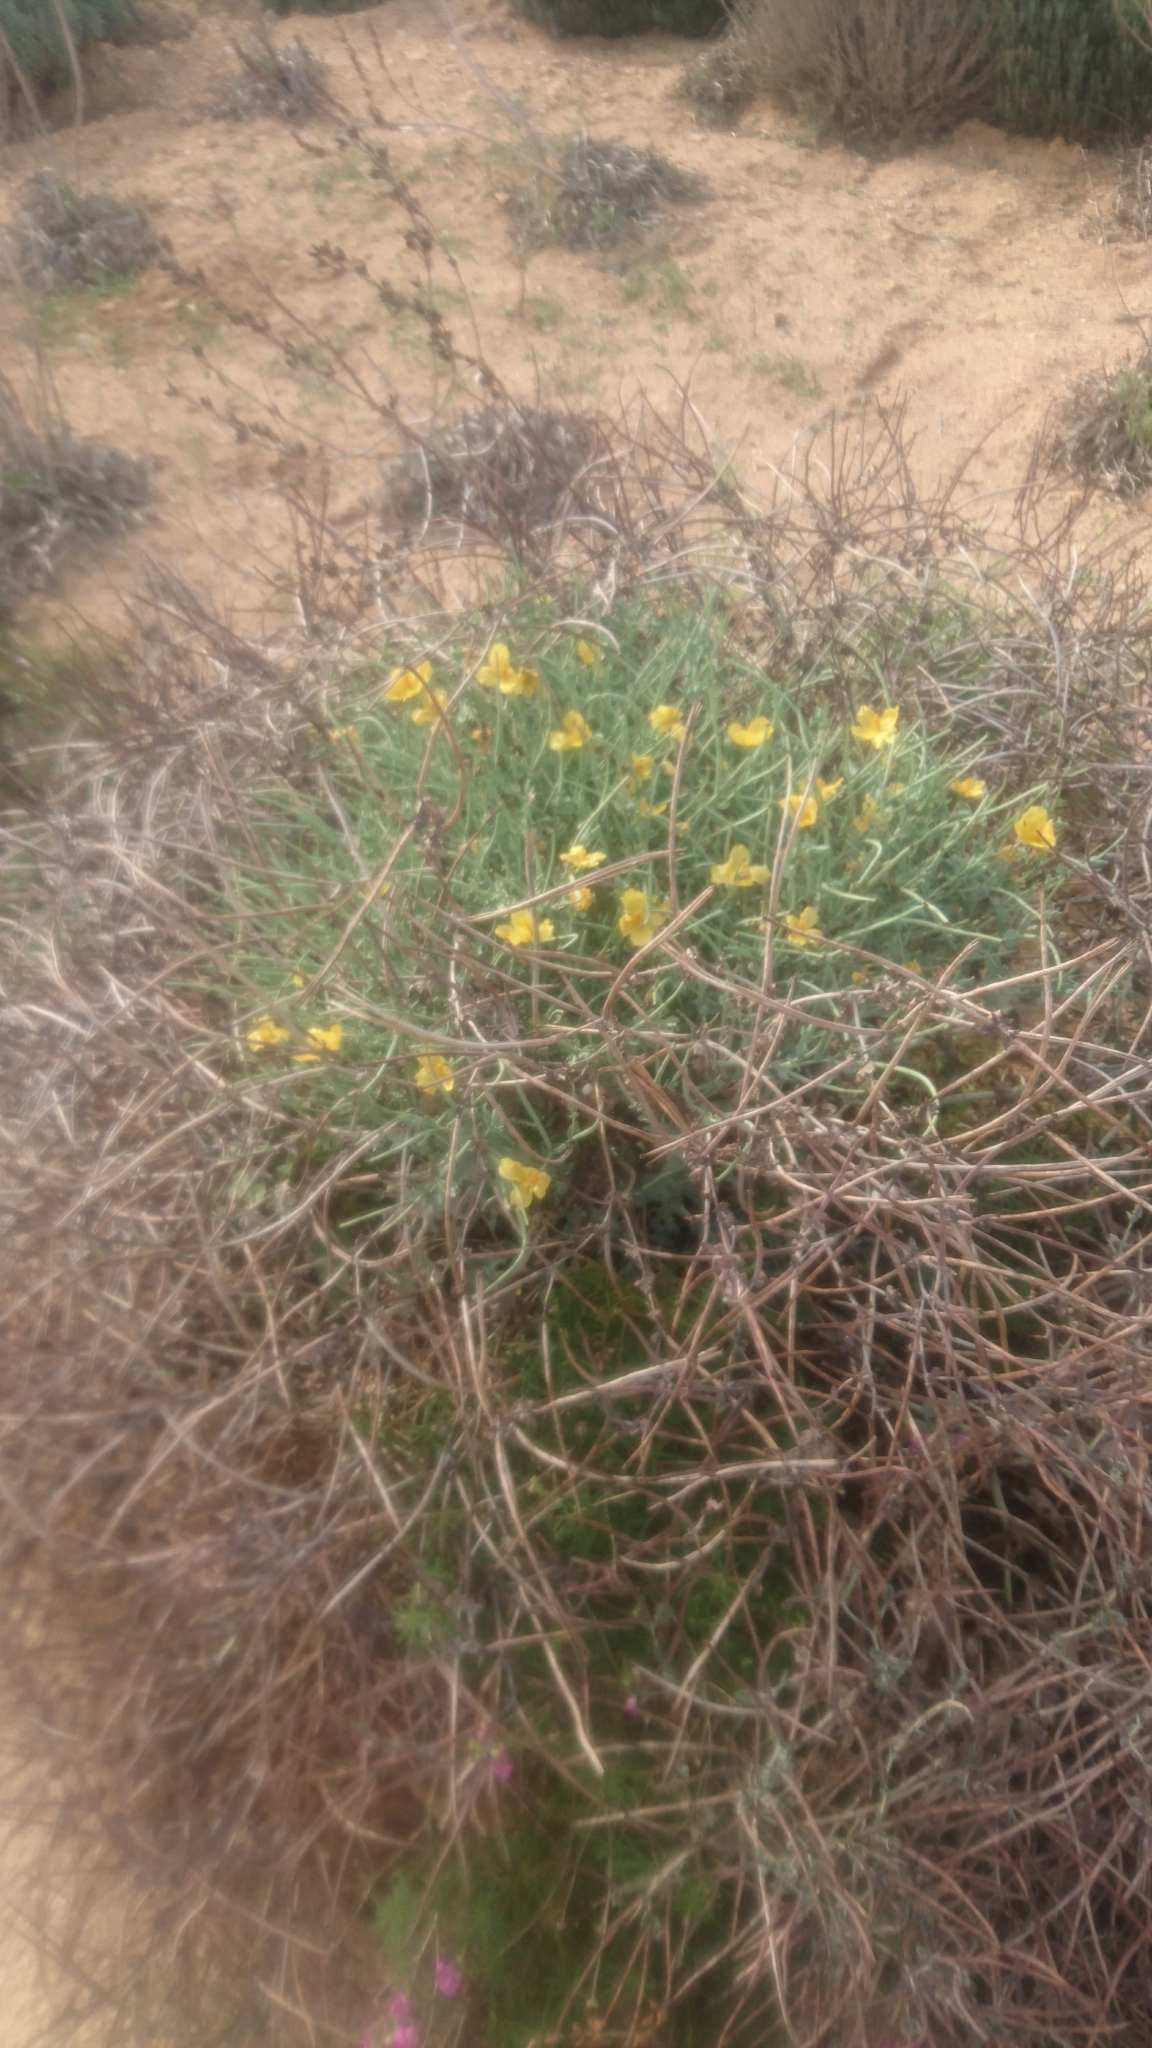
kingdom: Plantae
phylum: Tracheophyta
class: Magnoliopsida
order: Ranunculales
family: Papaveraceae
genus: Glaucium
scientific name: Glaucium flavum
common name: Yellow horned-poppy
